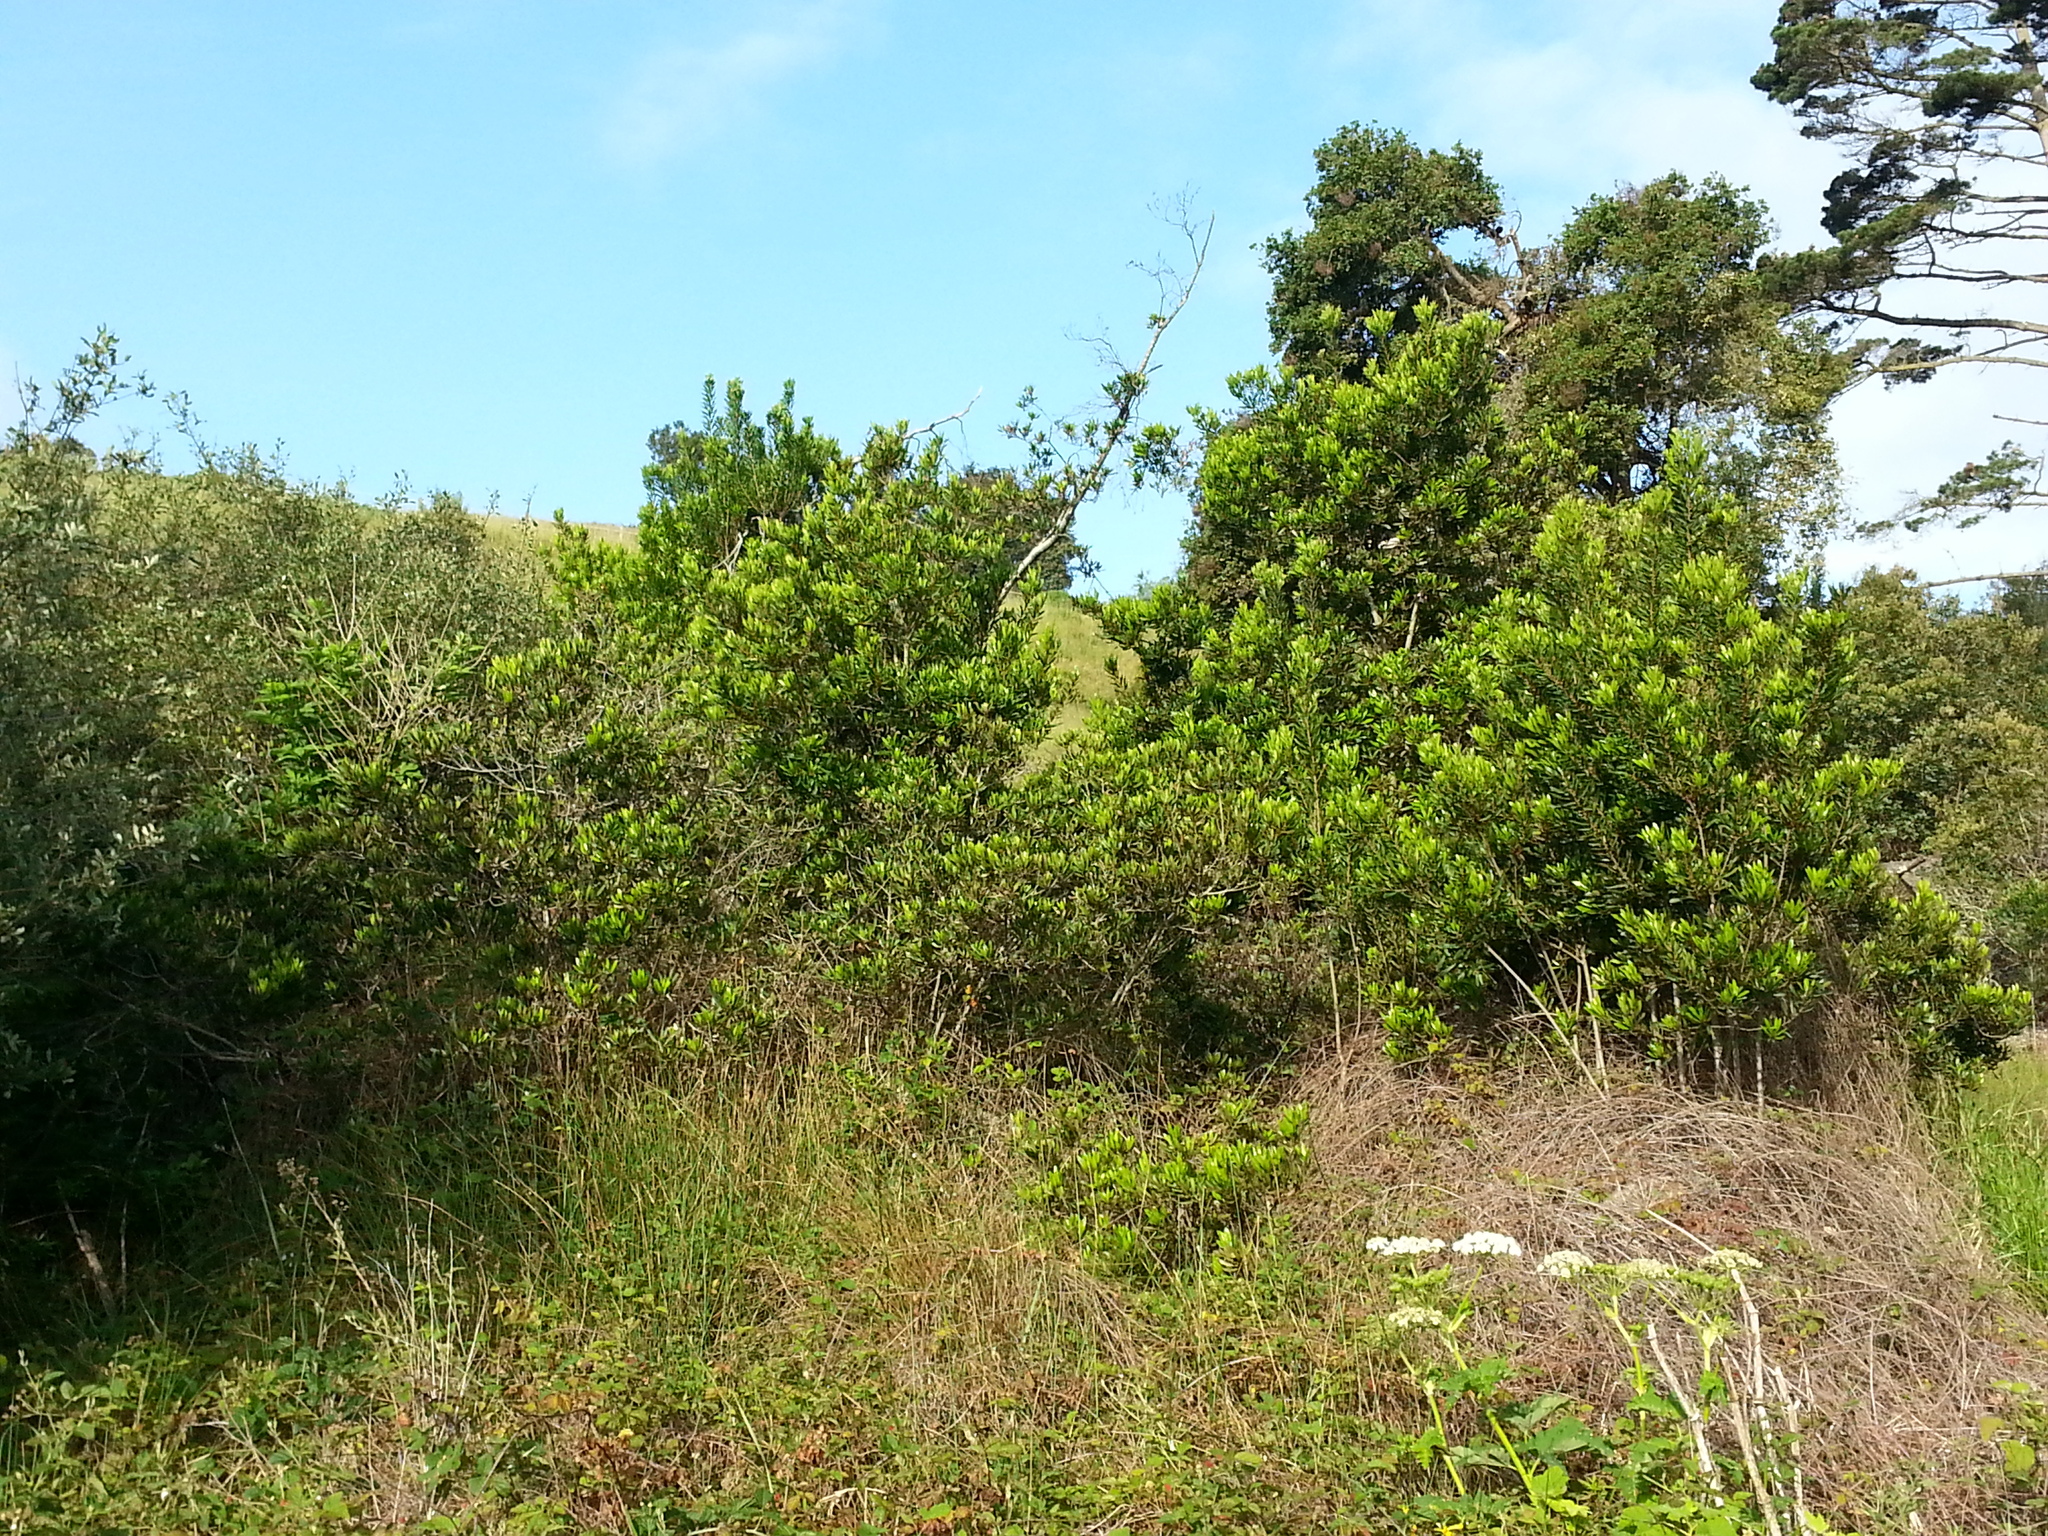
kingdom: Plantae
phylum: Tracheophyta
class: Magnoliopsida
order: Fagales
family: Myricaceae
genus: Morella
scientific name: Morella californica
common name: California wax-myrtle
